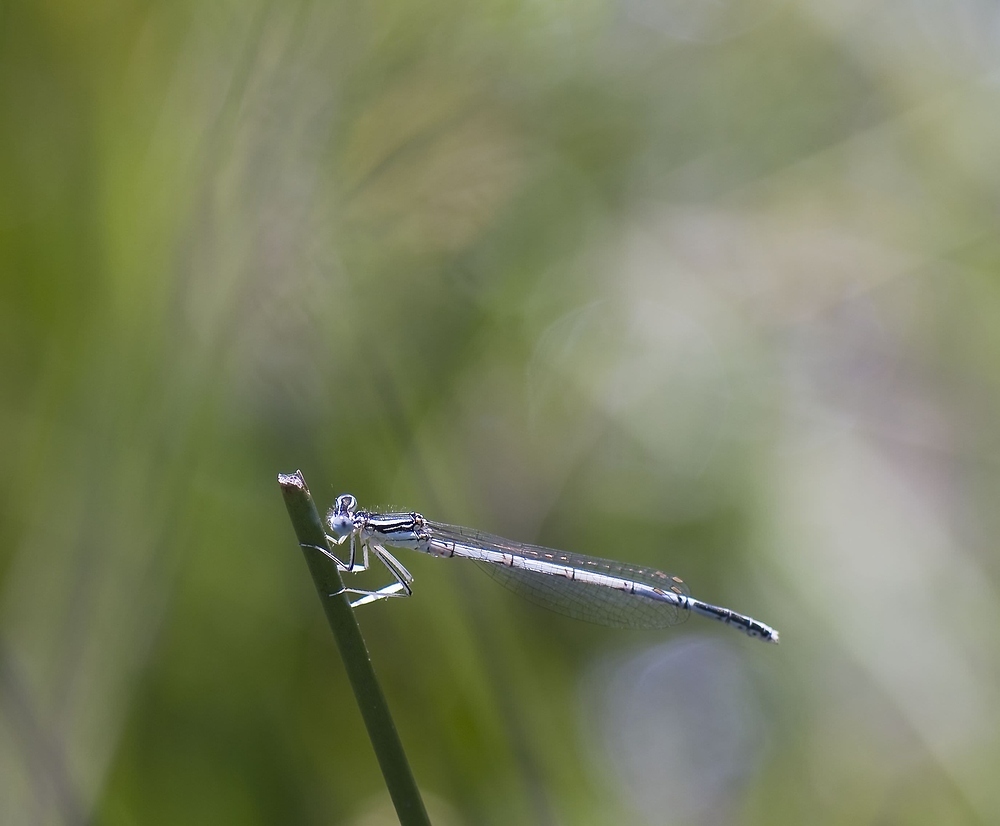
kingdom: Animalia
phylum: Arthropoda
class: Insecta
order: Odonata
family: Platycnemididae
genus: Platycnemis
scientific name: Platycnemis latipes
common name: White featherleg
